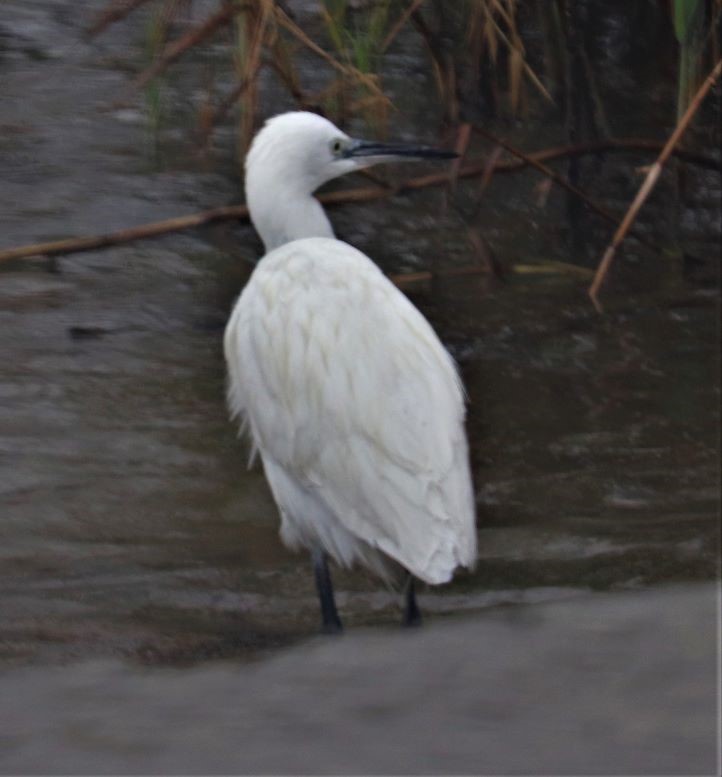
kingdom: Animalia
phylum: Chordata
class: Aves
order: Pelecaniformes
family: Ardeidae
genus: Egretta
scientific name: Egretta garzetta
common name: Little egret
